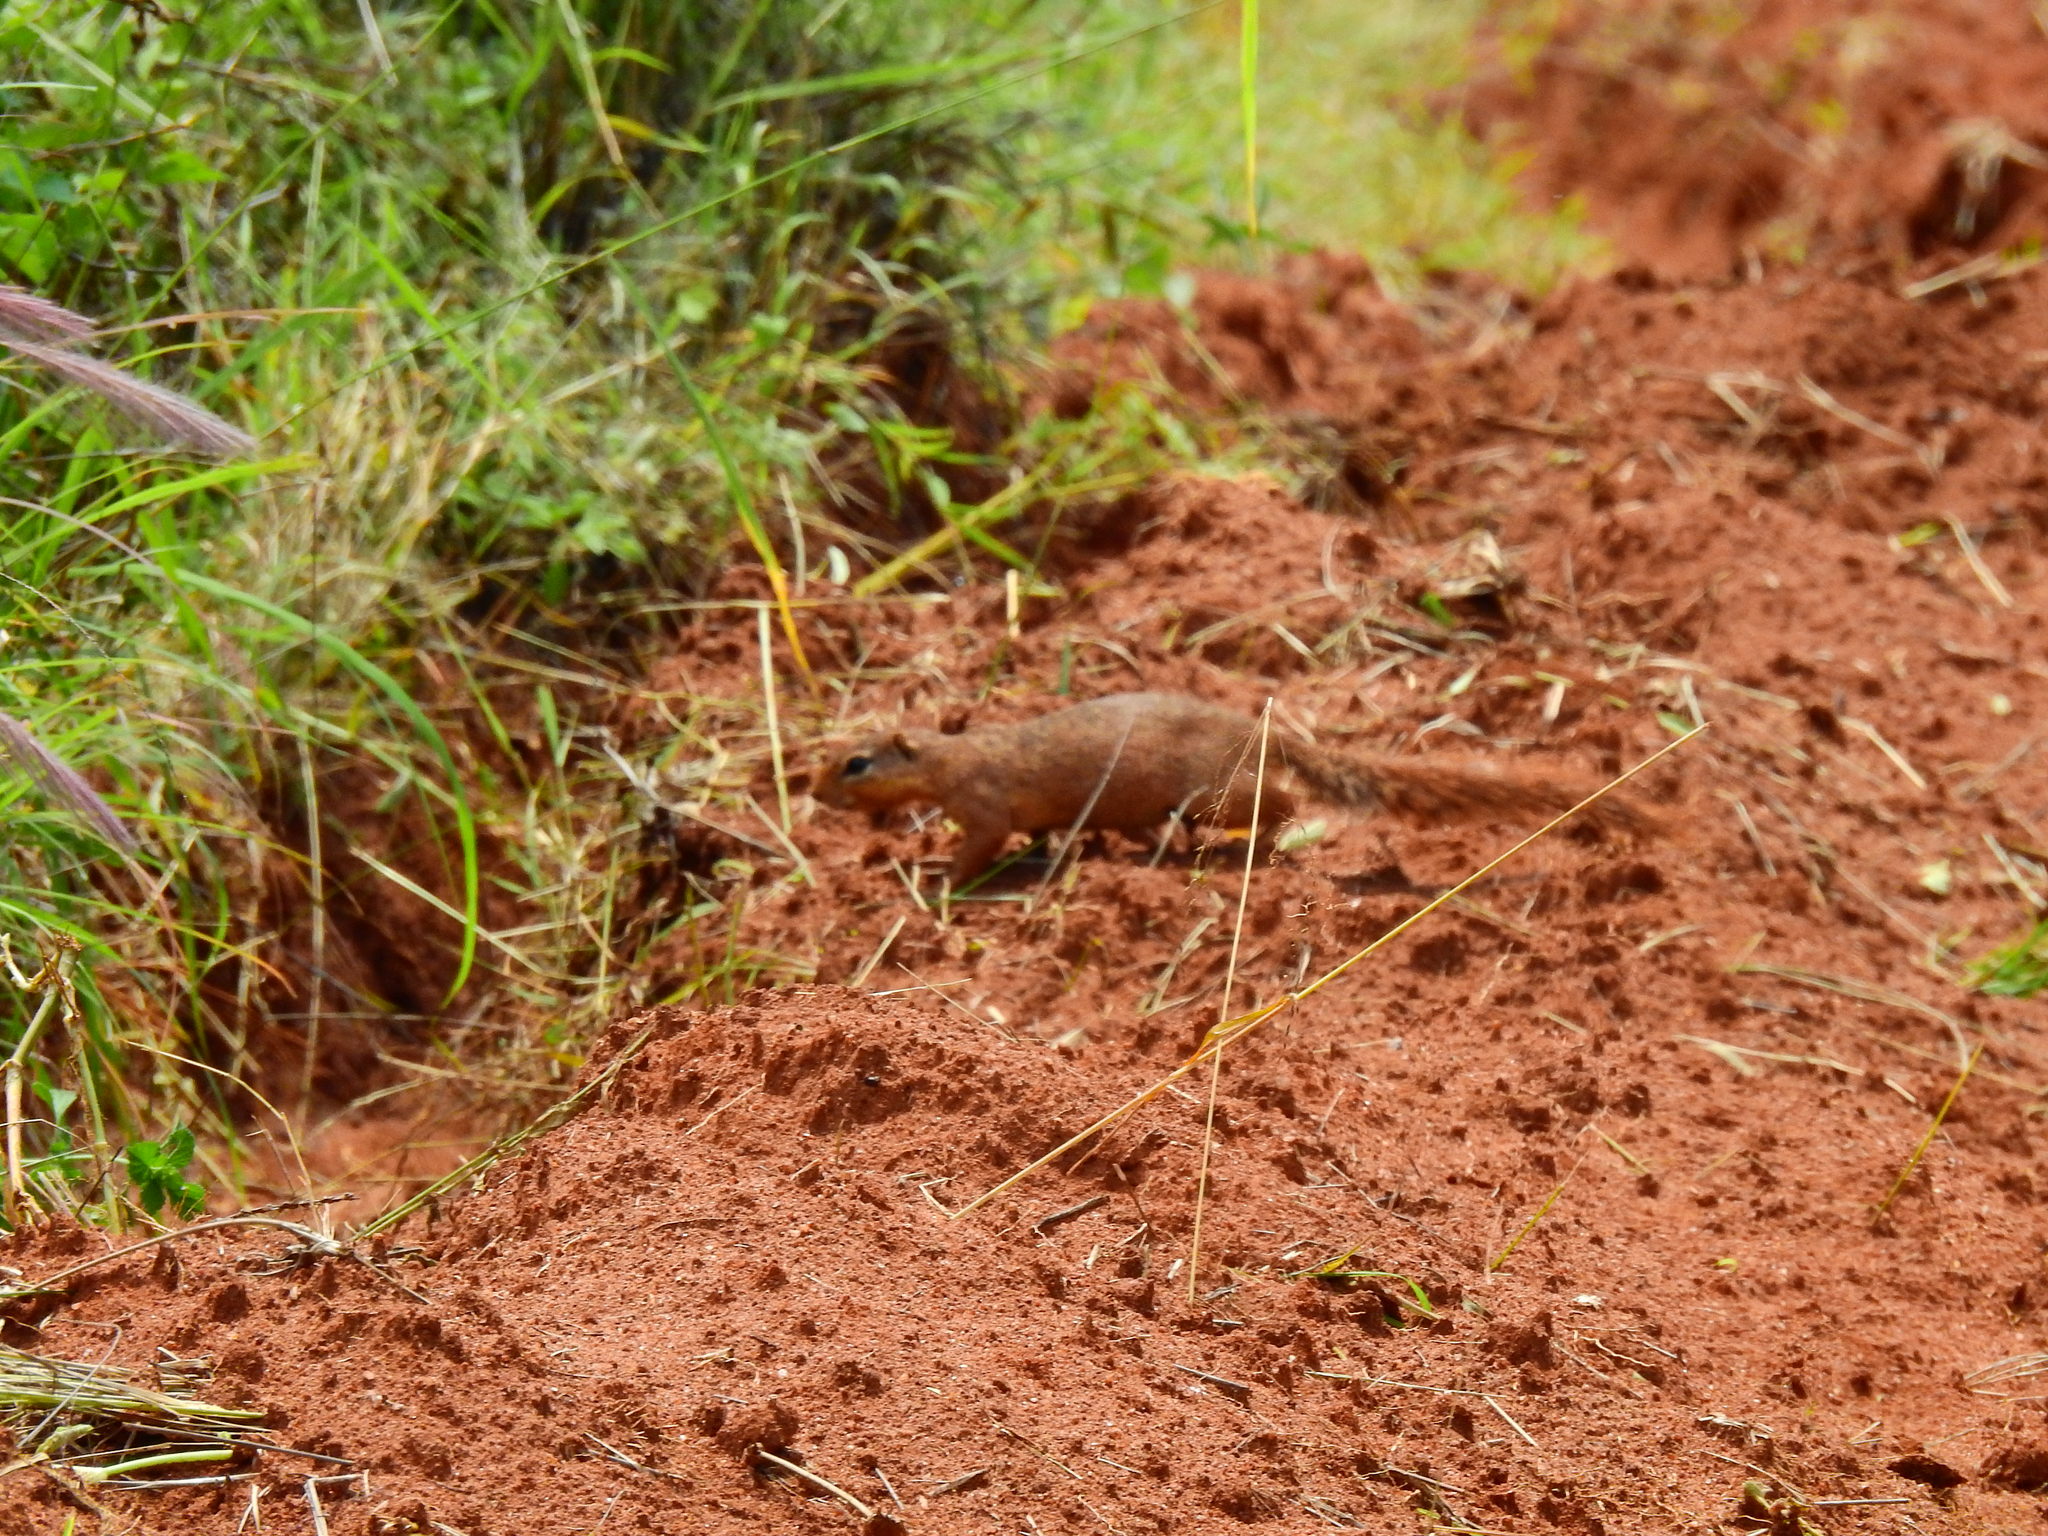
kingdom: Animalia
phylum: Chordata
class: Mammalia
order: Rodentia
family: Sciuridae
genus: Xerus
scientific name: Xerus rutilus
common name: Unstriped ground squirrel
